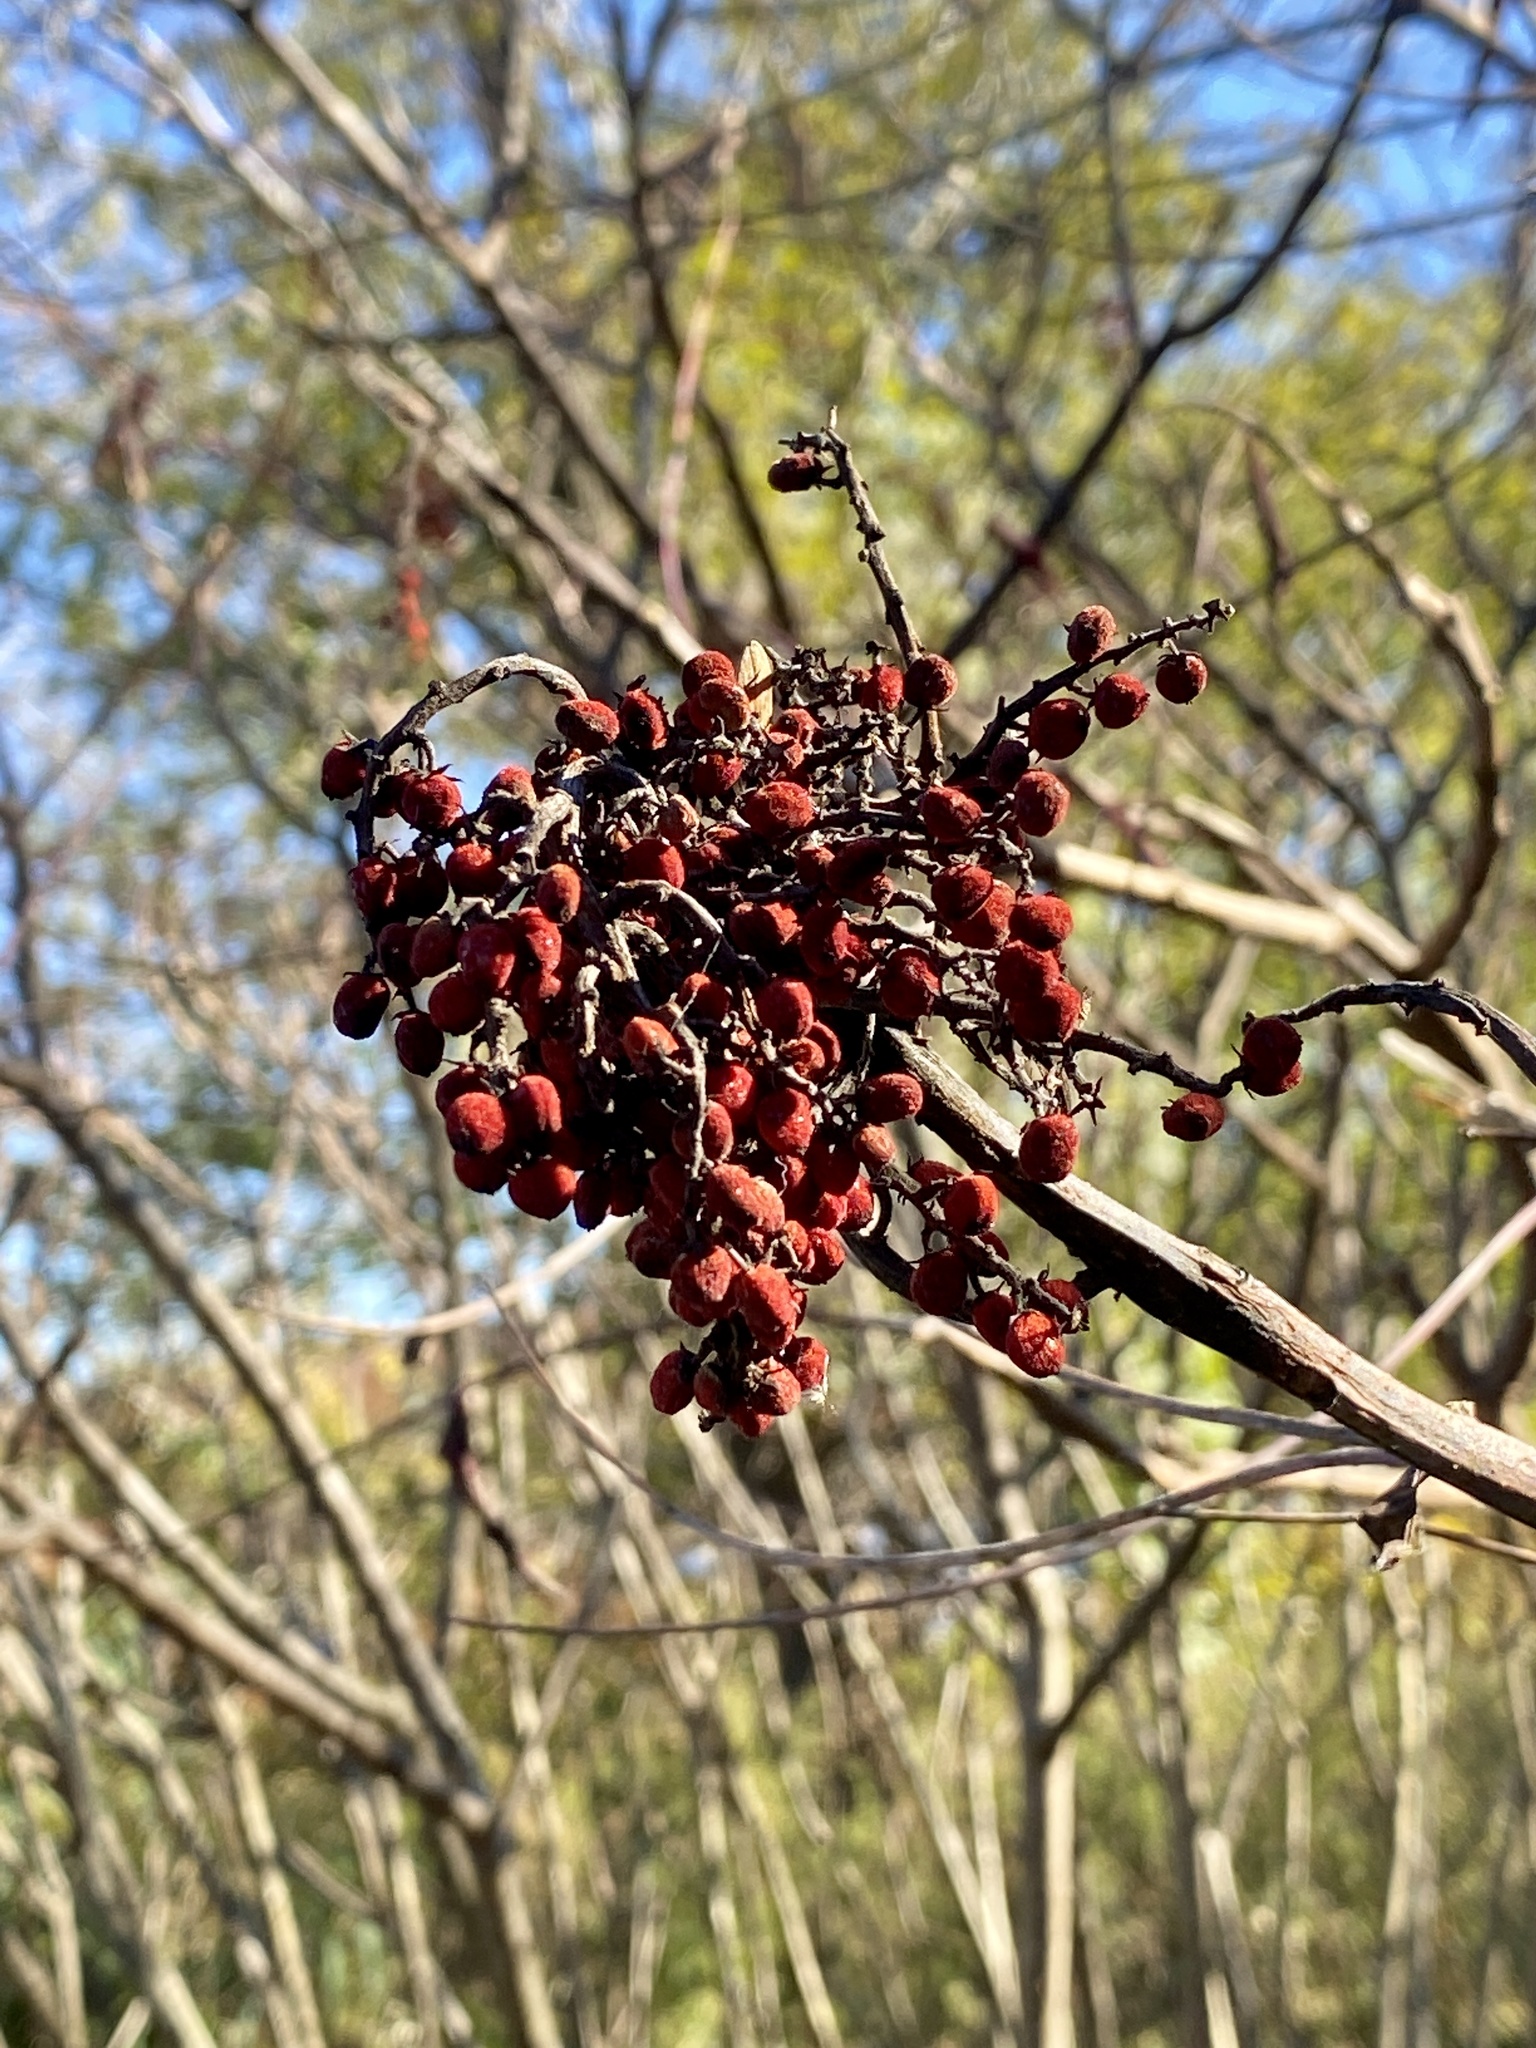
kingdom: Plantae
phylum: Tracheophyta
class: Magnoliopsida
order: Sapindales
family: Anacardiaceae
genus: Rhus
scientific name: Rhus glabra
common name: Scarlet sumac
